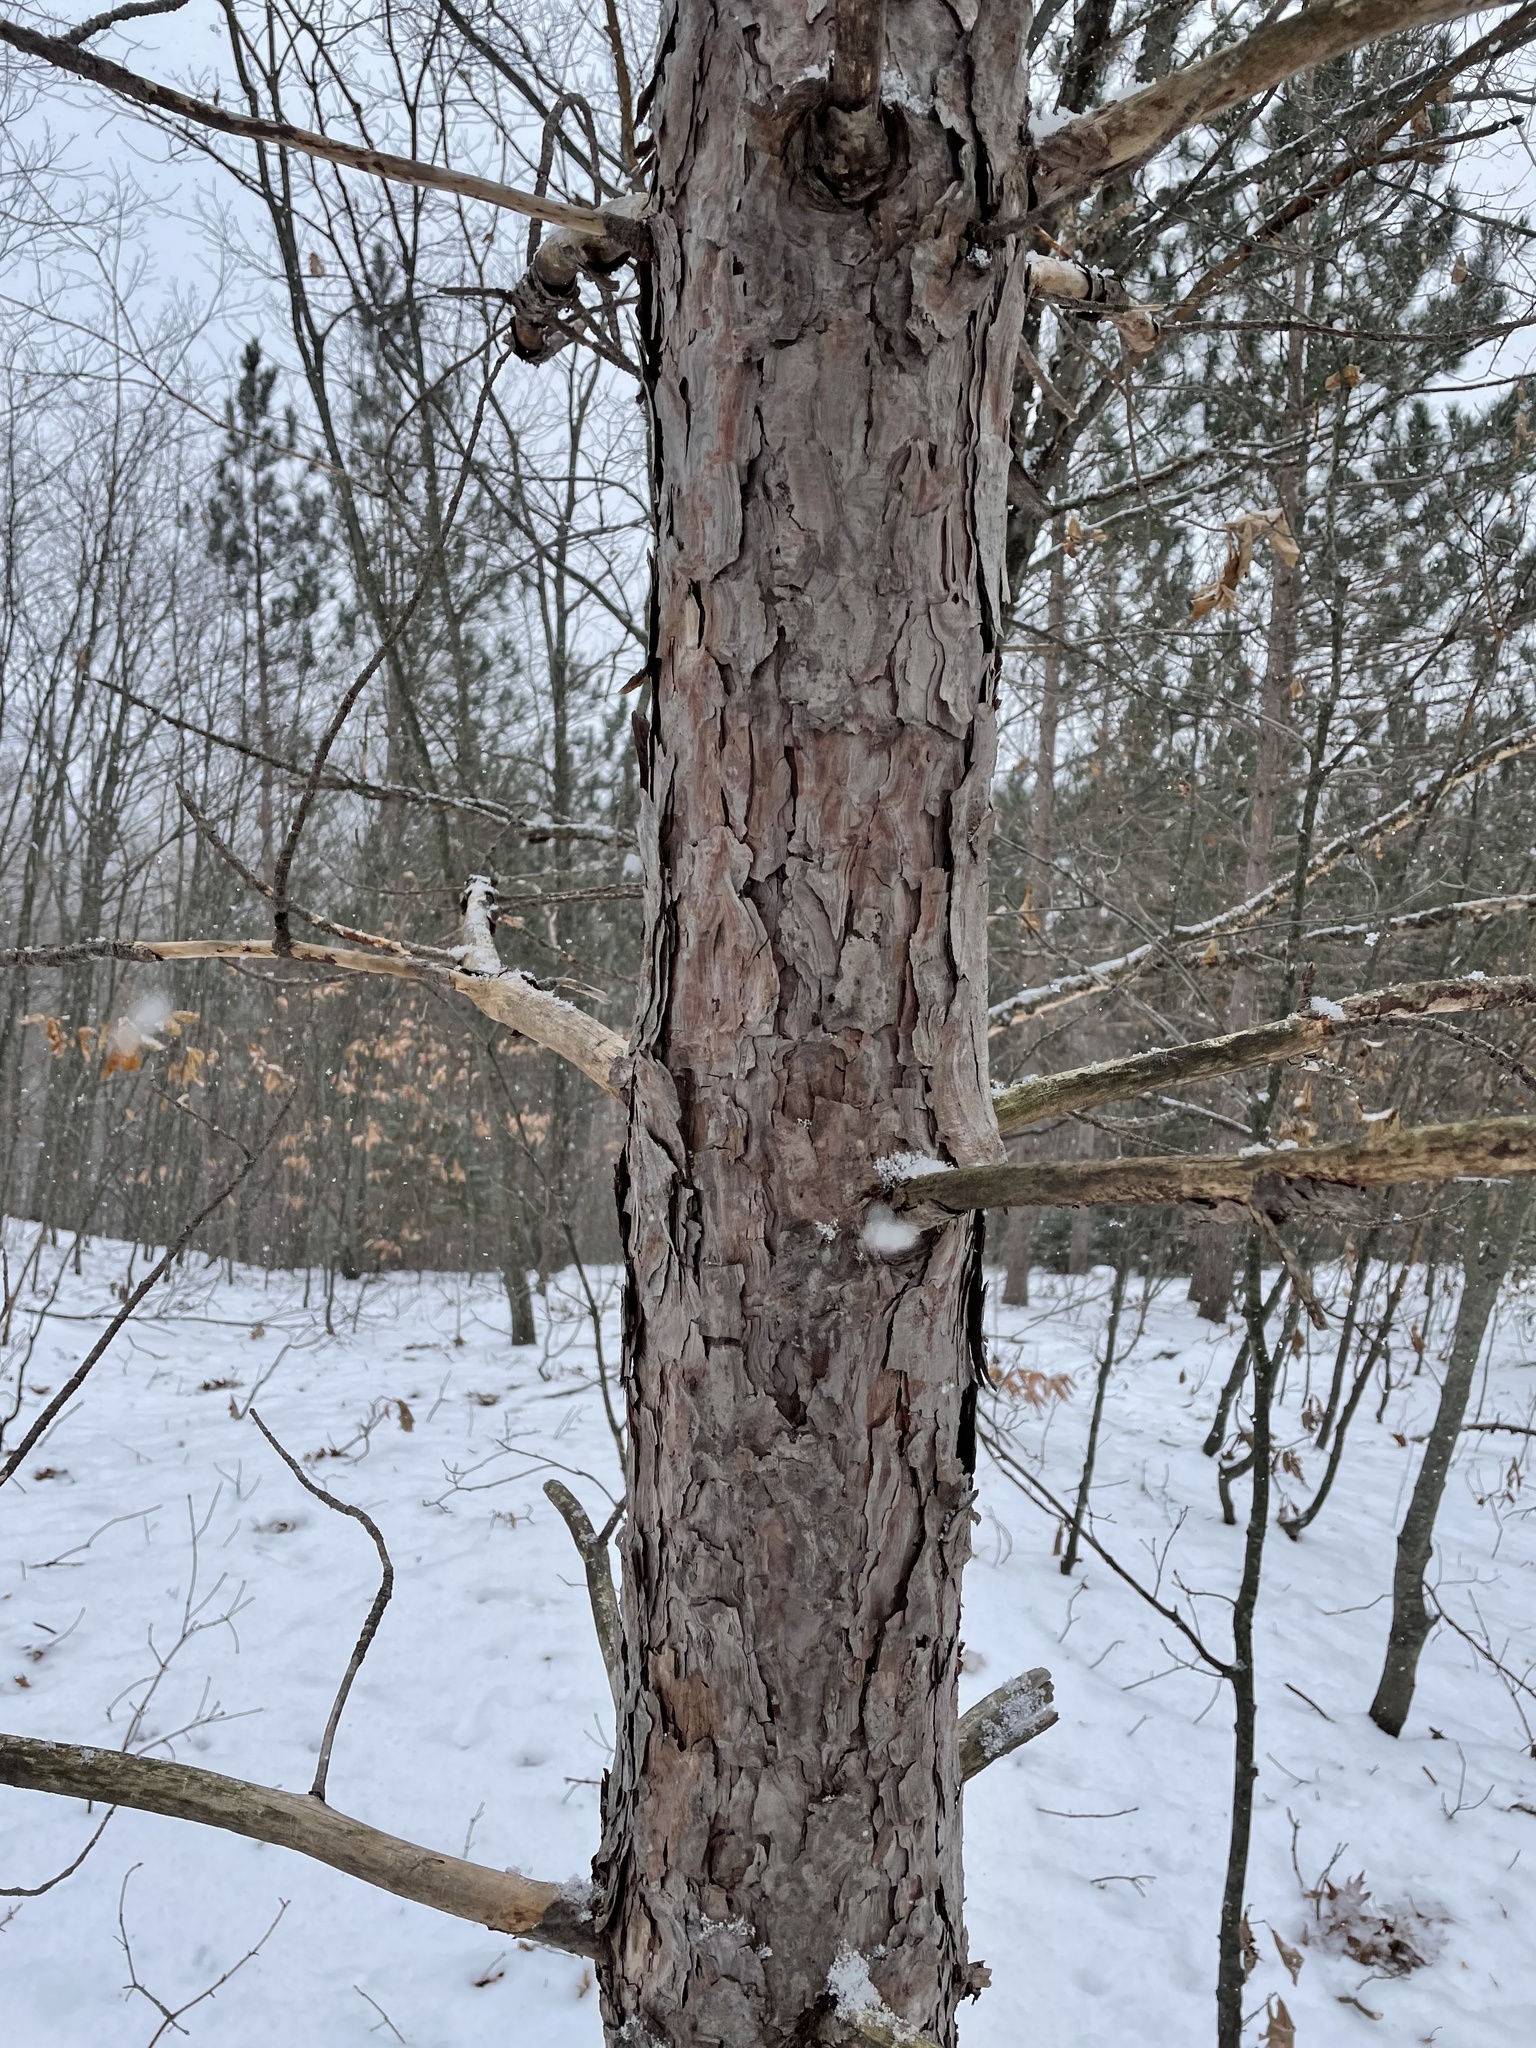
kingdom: Plantae
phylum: Tracheophyta
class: Pinopsida
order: Pinales
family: Pinaceae
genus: Pinus
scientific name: Pinus resinosa
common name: Norway pine
